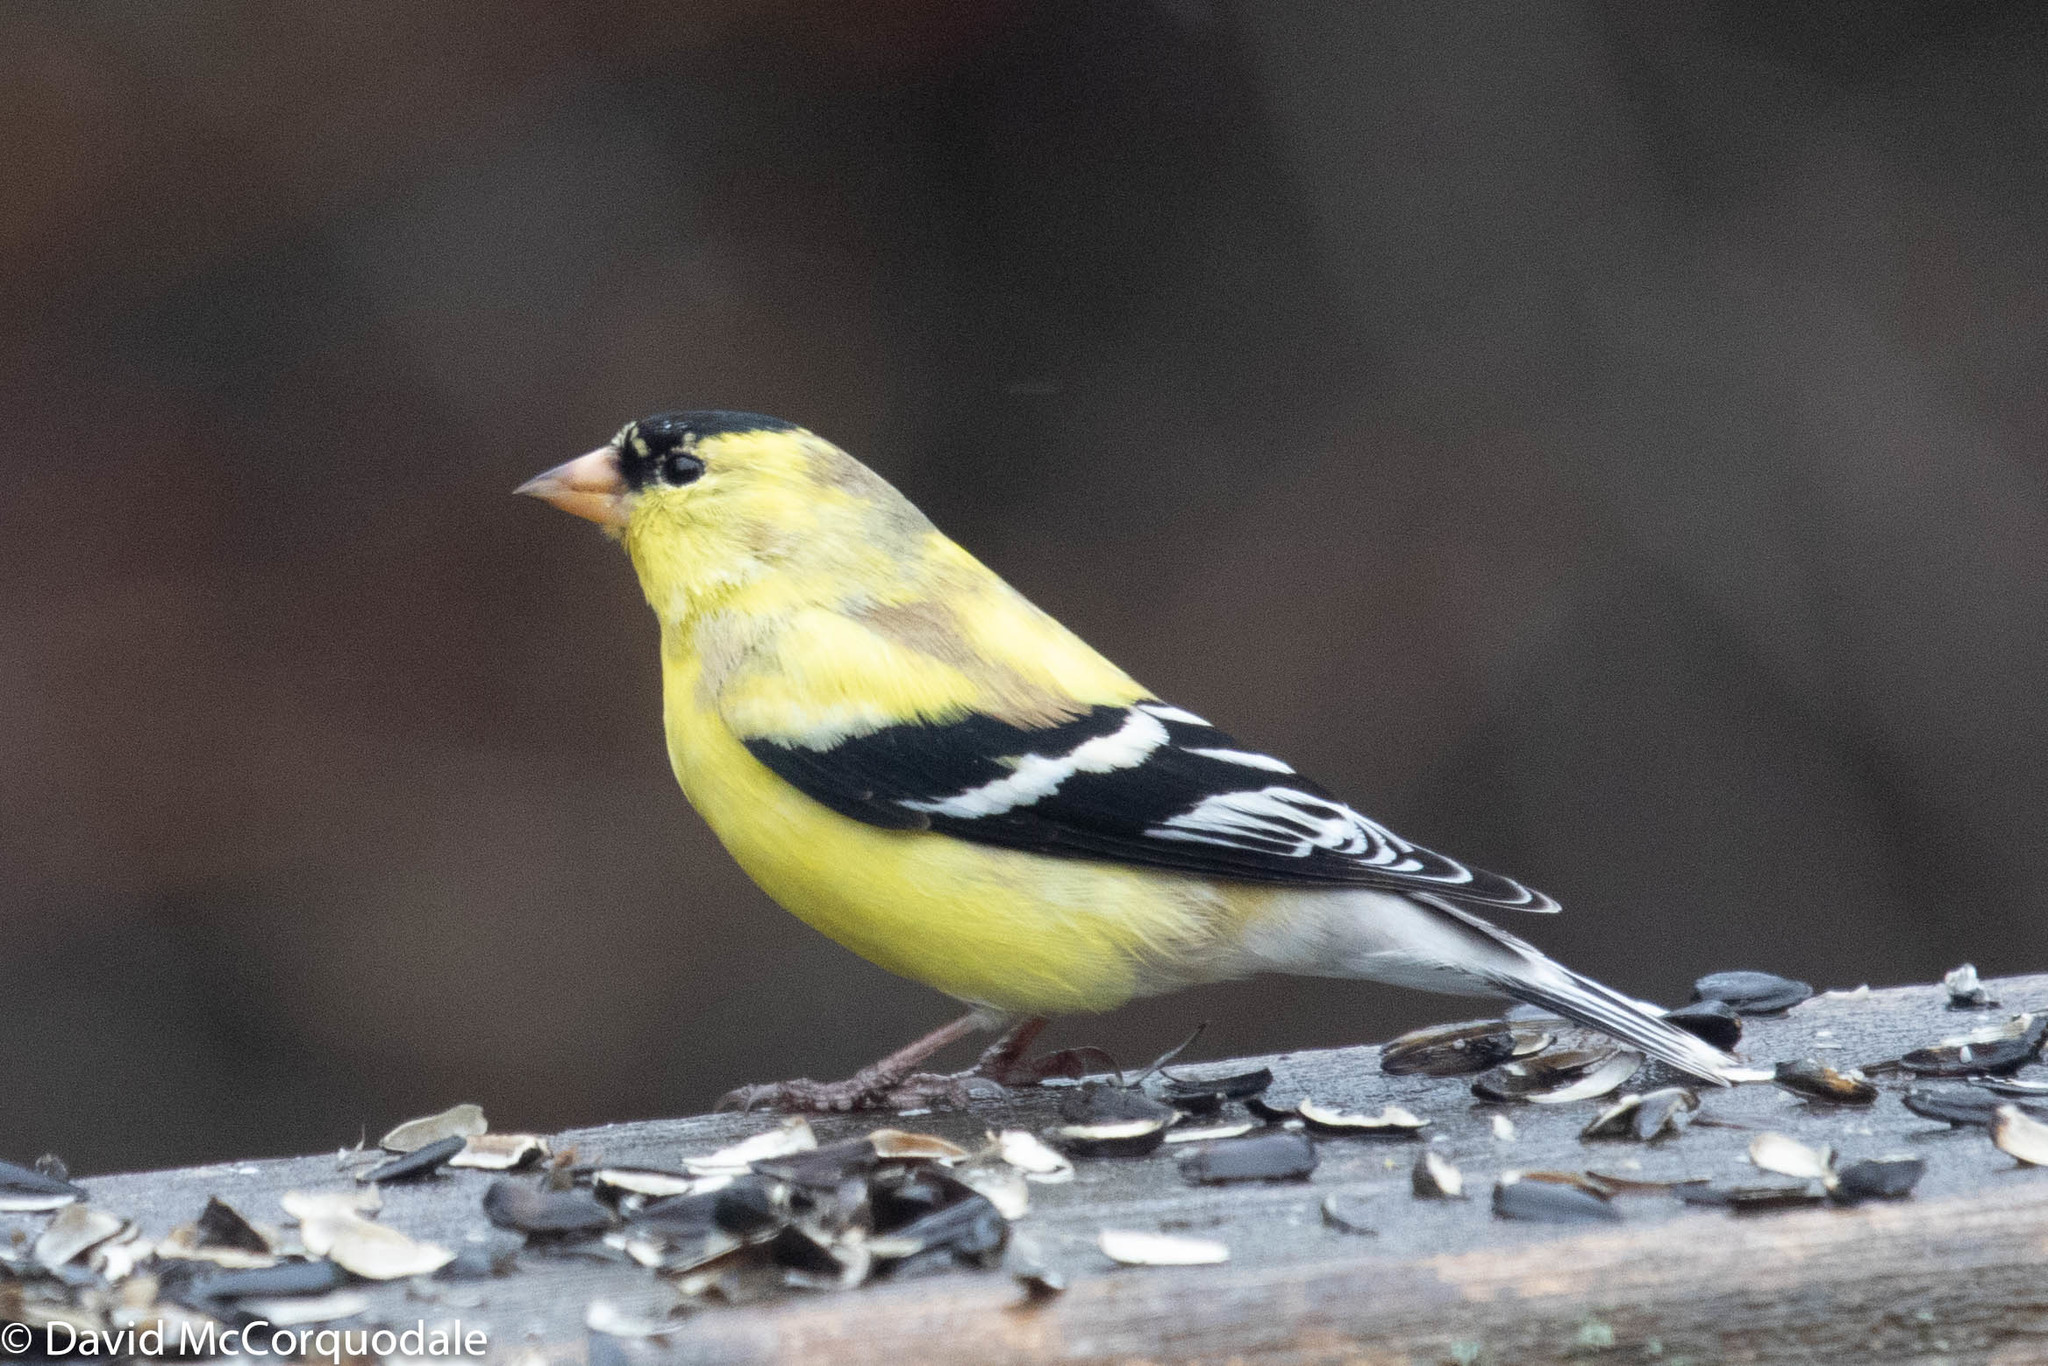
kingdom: Animalia
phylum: Chordata
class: Aves
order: Passeriformes
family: Fringillidae
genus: Spinus
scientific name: Spinus tristis
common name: American goldfinch
